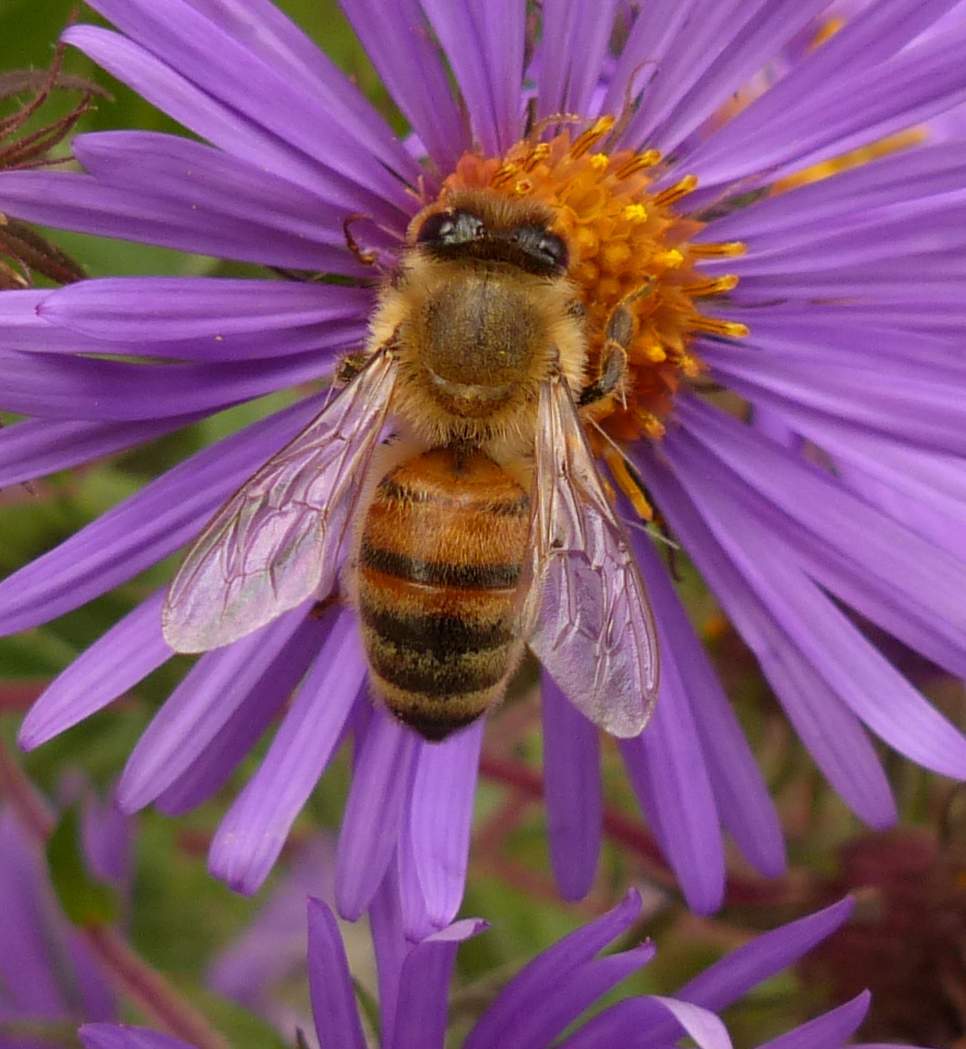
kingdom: Animalia
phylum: Arthropoda
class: Insecta
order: Hymenoptera
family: Apidae
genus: Apis
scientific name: Apis mellifera
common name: Honey bee
